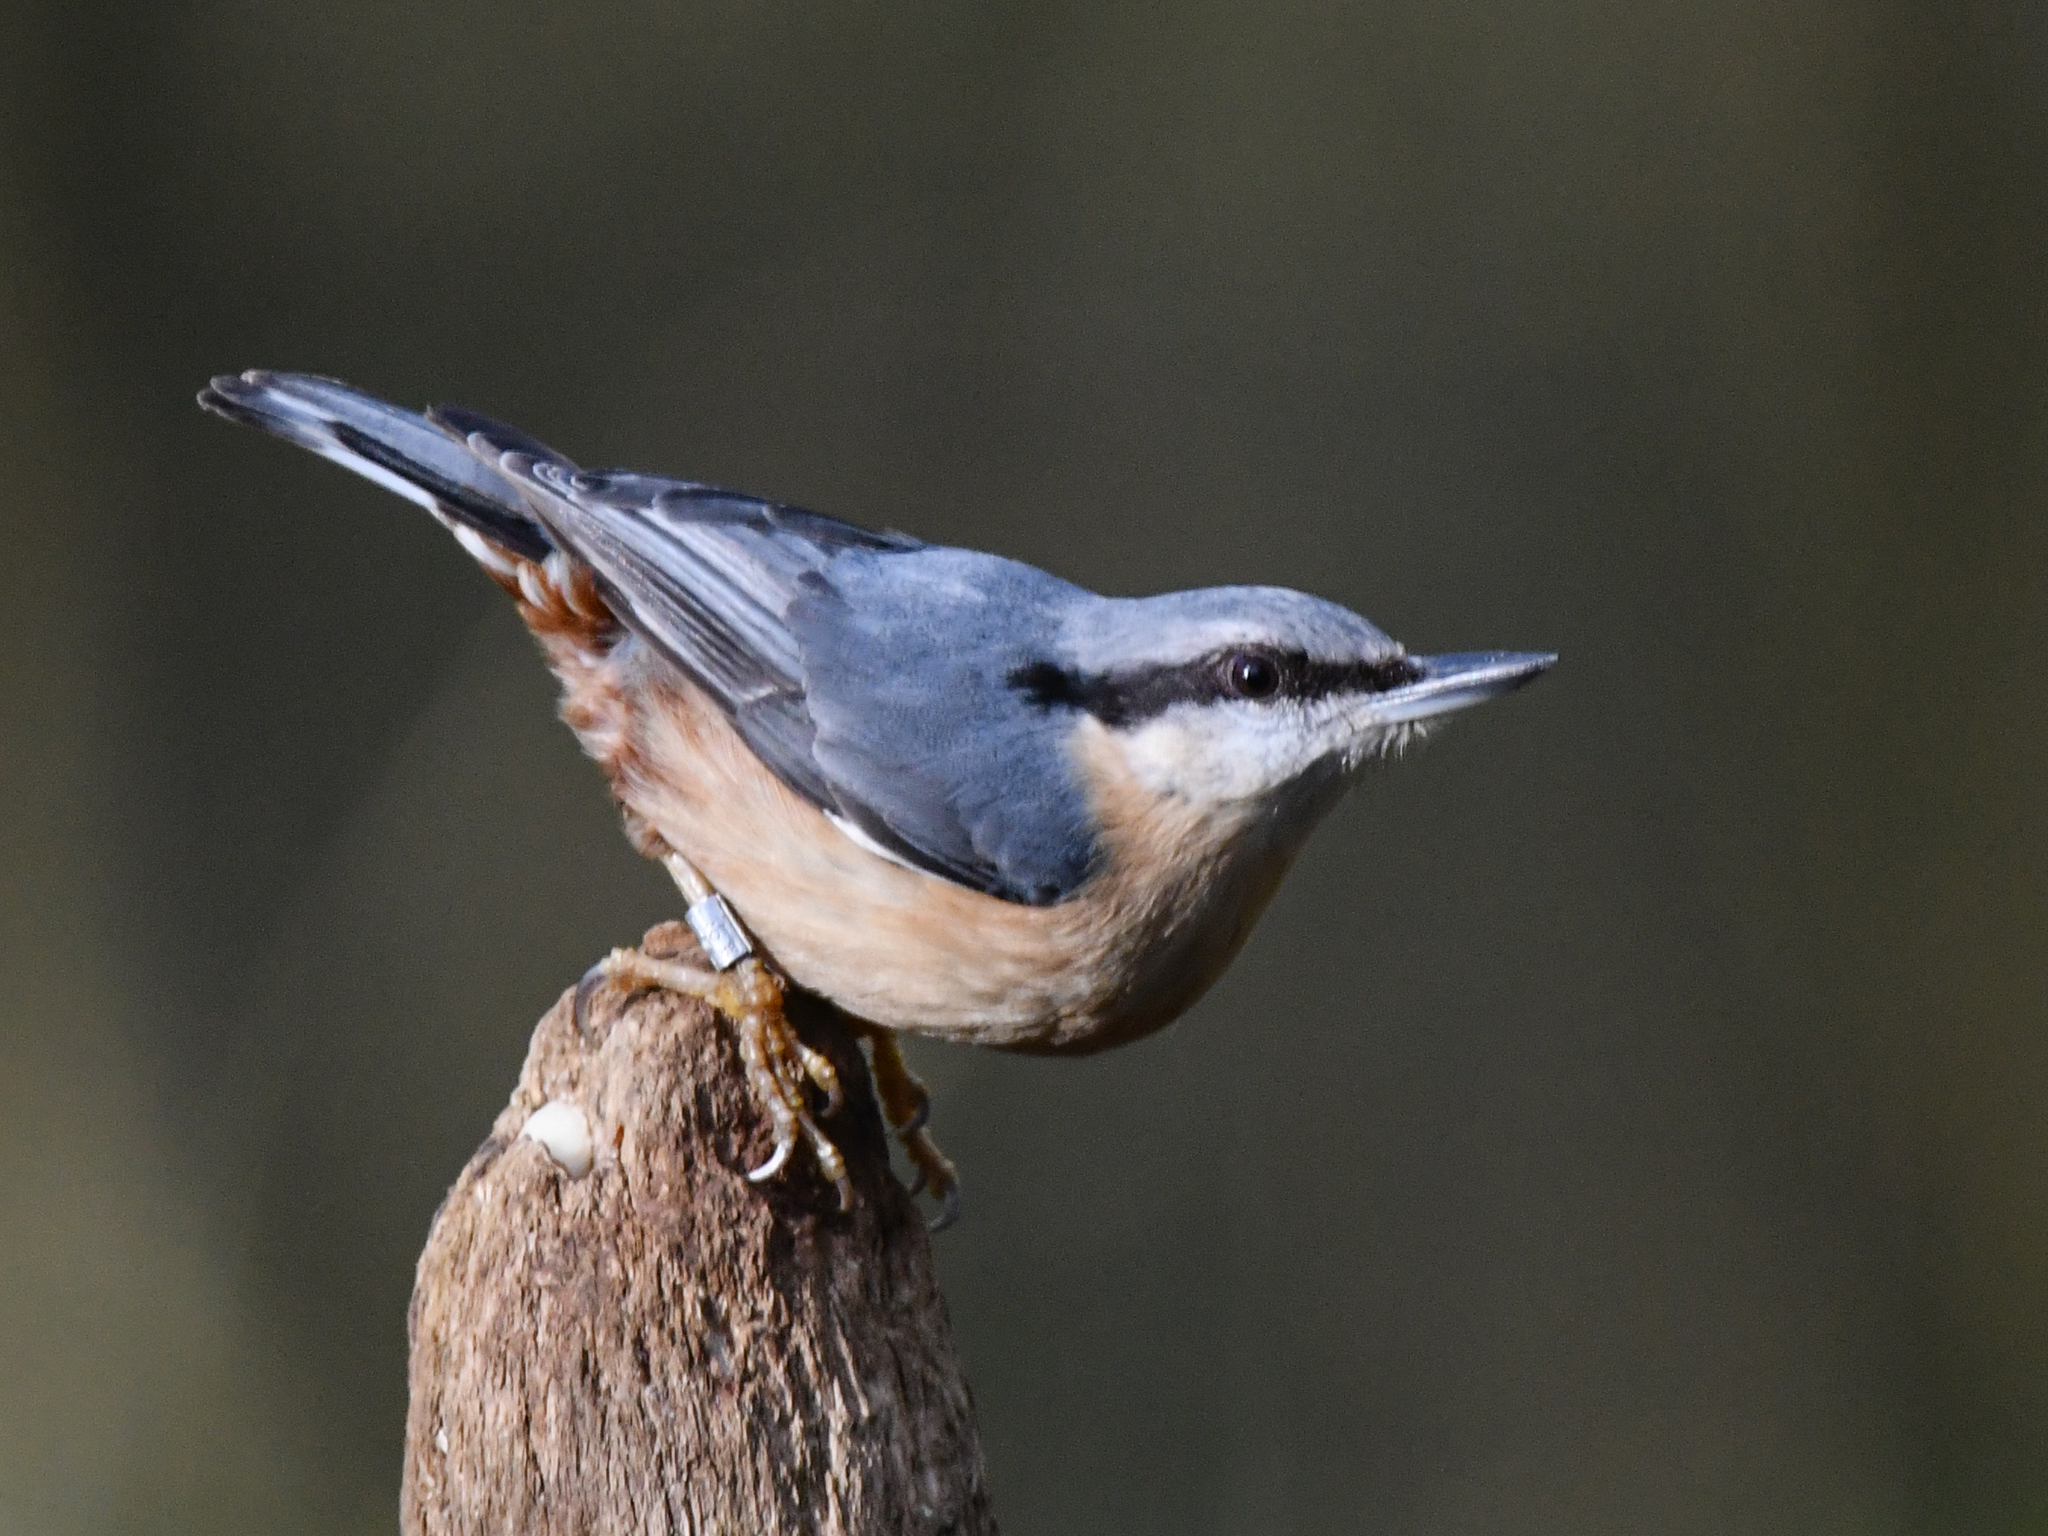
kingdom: Animalia
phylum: Chordata
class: Aves
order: Passeriformes
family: Sittidae
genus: Sitta
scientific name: Sitta europaea
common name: Eurasian nuthatch
